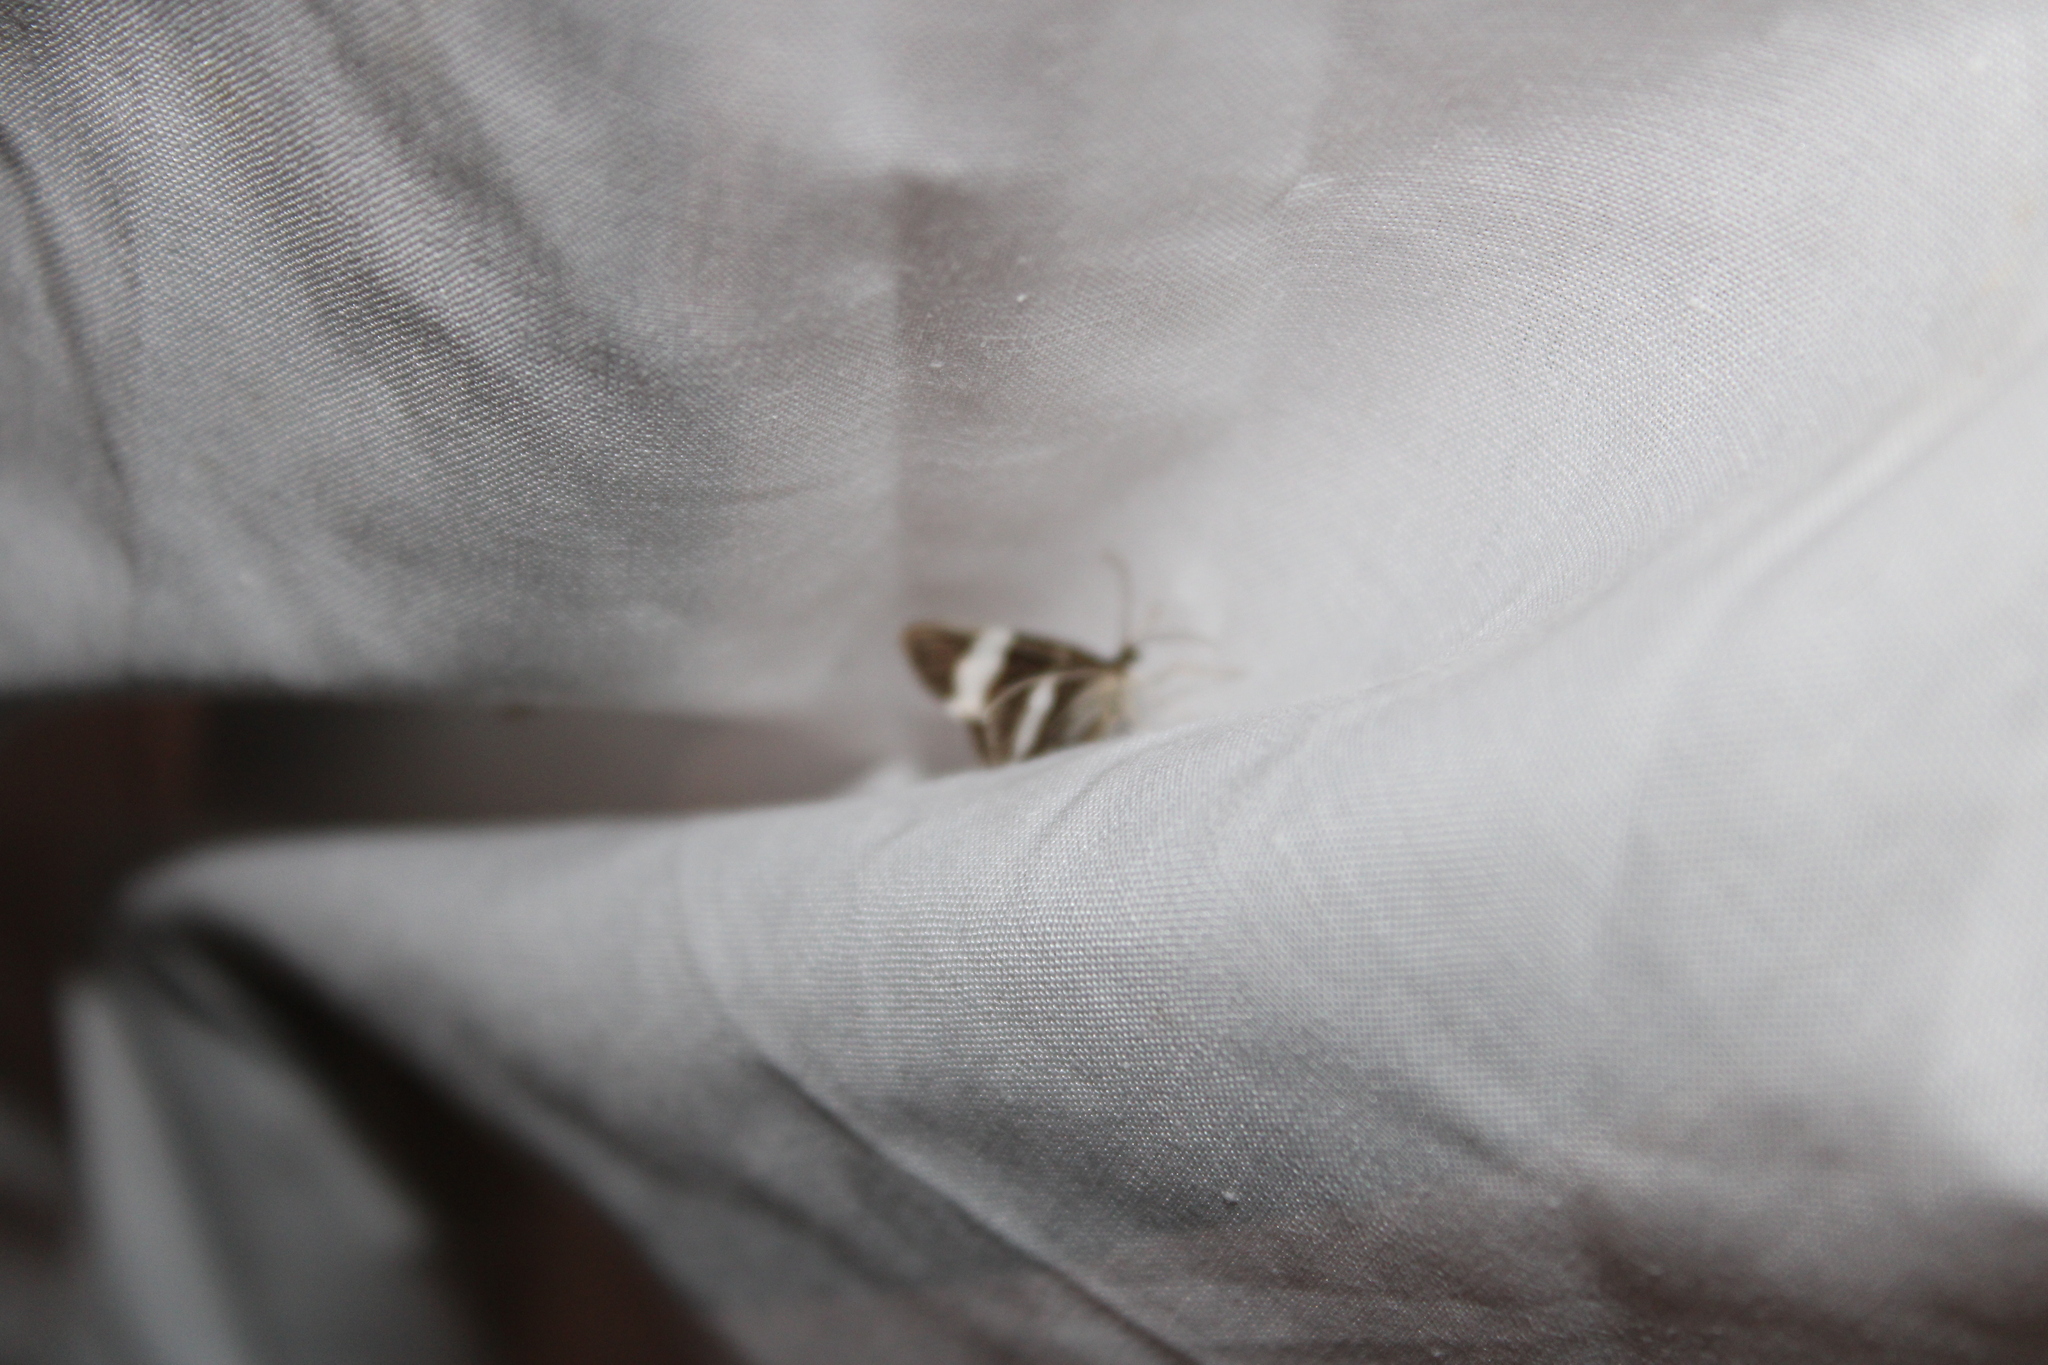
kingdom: Animalia
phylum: Arthropoda
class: Insecta
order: Lepidoptera
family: Geometridae
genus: Trichodezia
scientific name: Trichodezia albovittata
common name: White striped black
